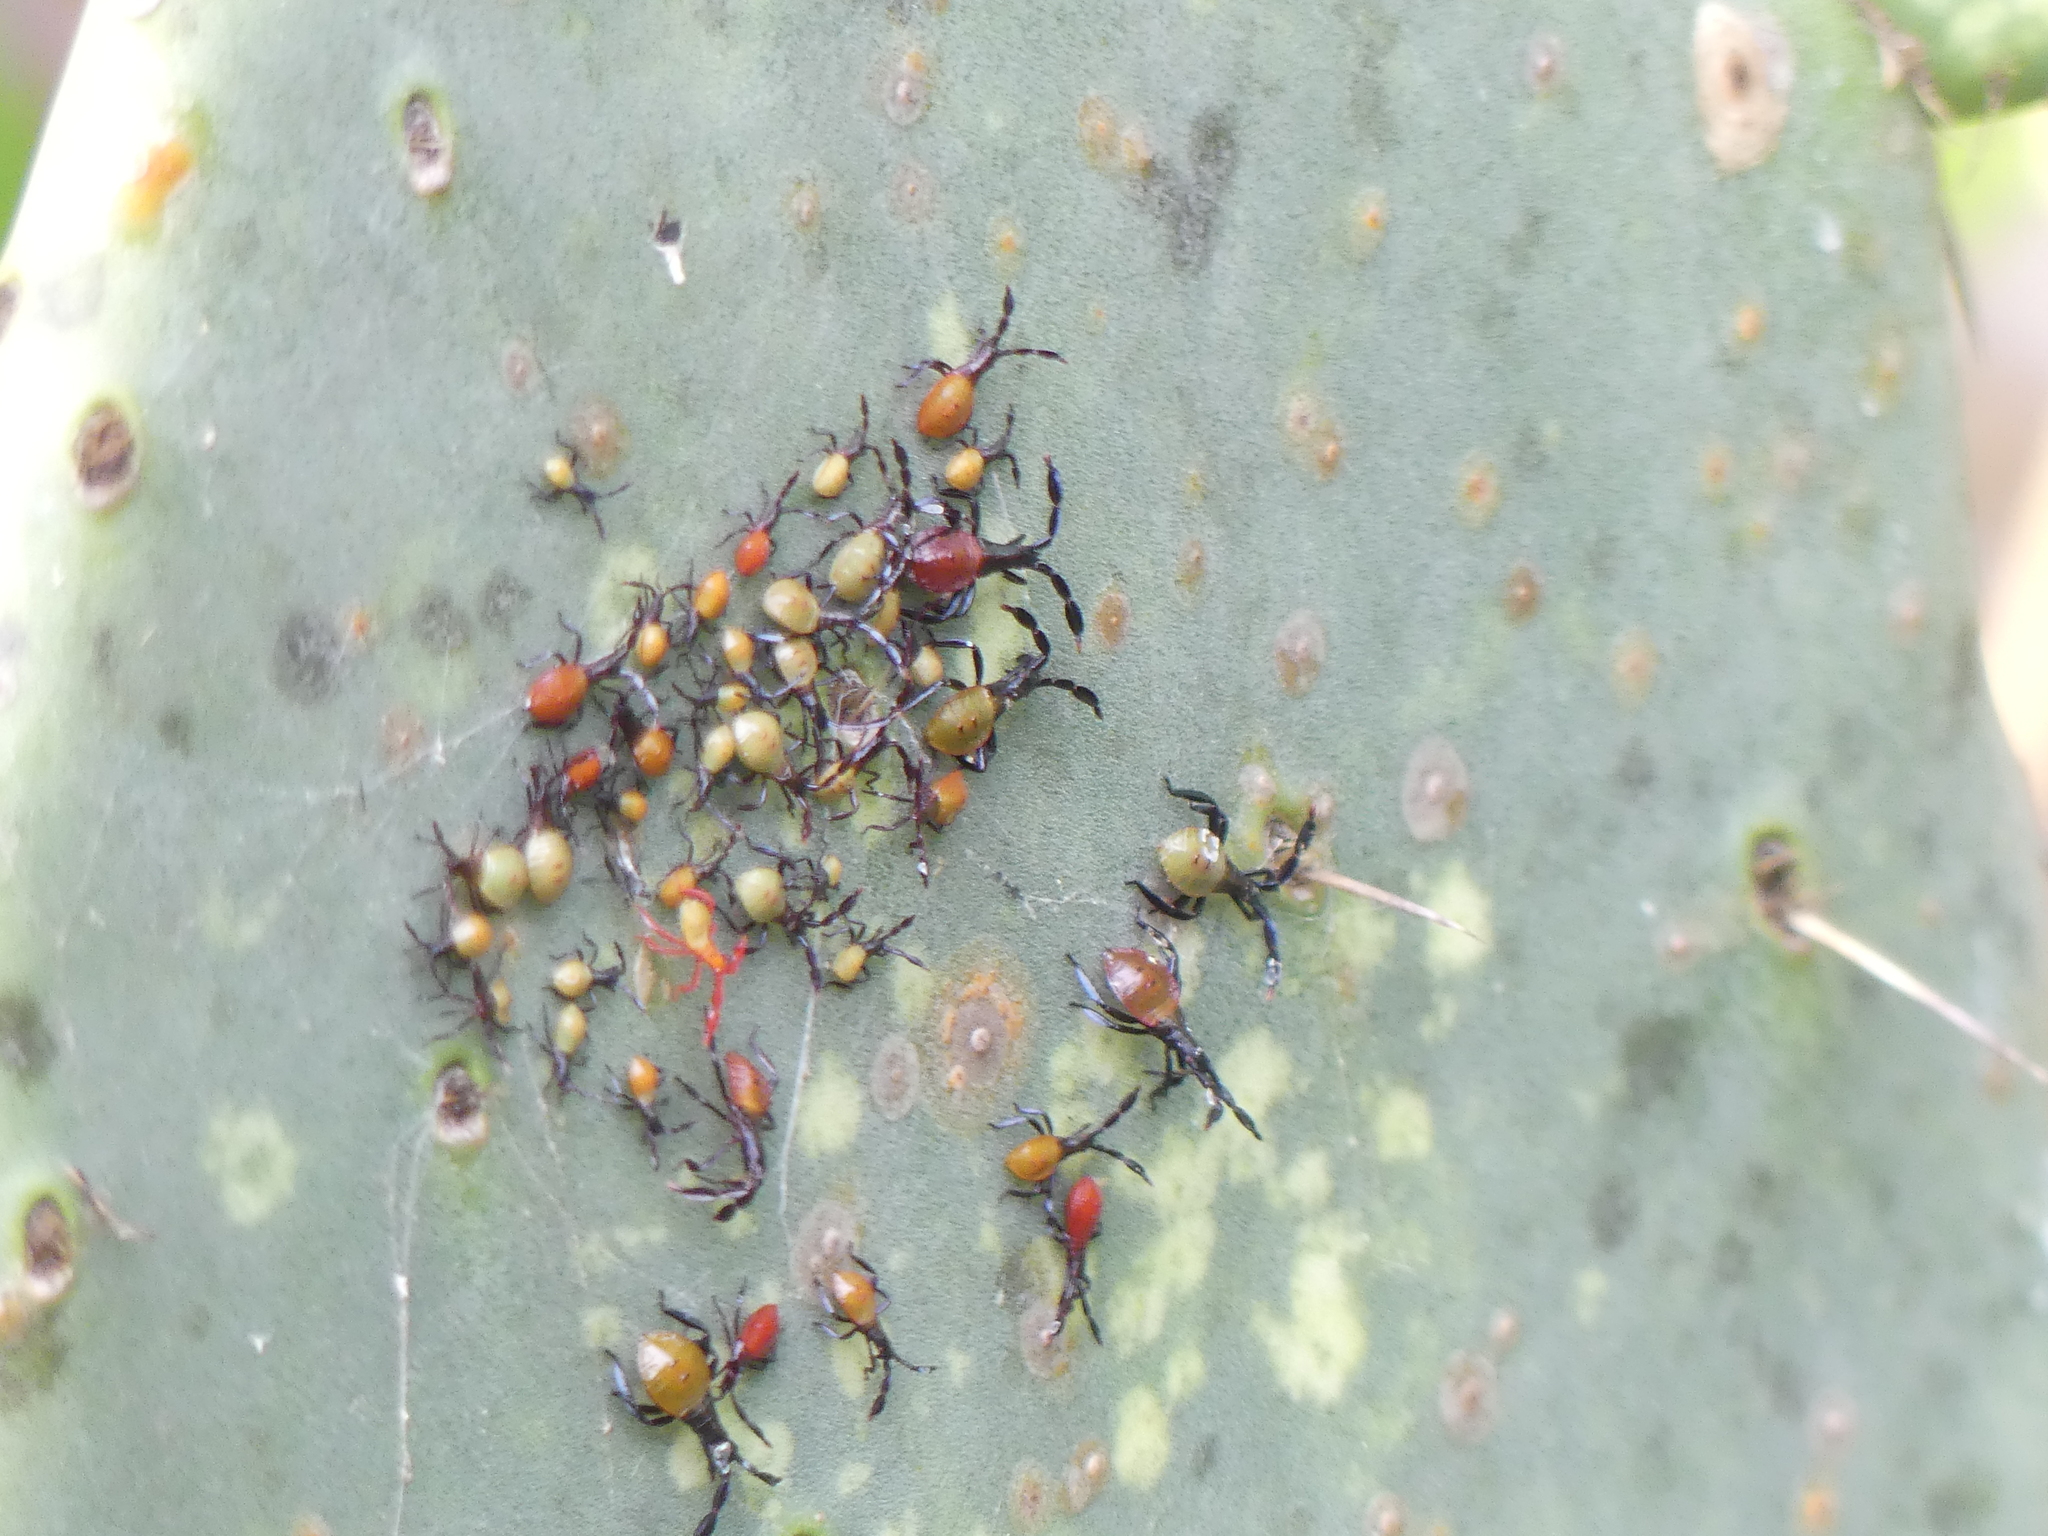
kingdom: Animalia
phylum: Arthropoda
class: Insecta
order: Hemiptera
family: Coreidae
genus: Chelinidea
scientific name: Chelinidea vittiger
